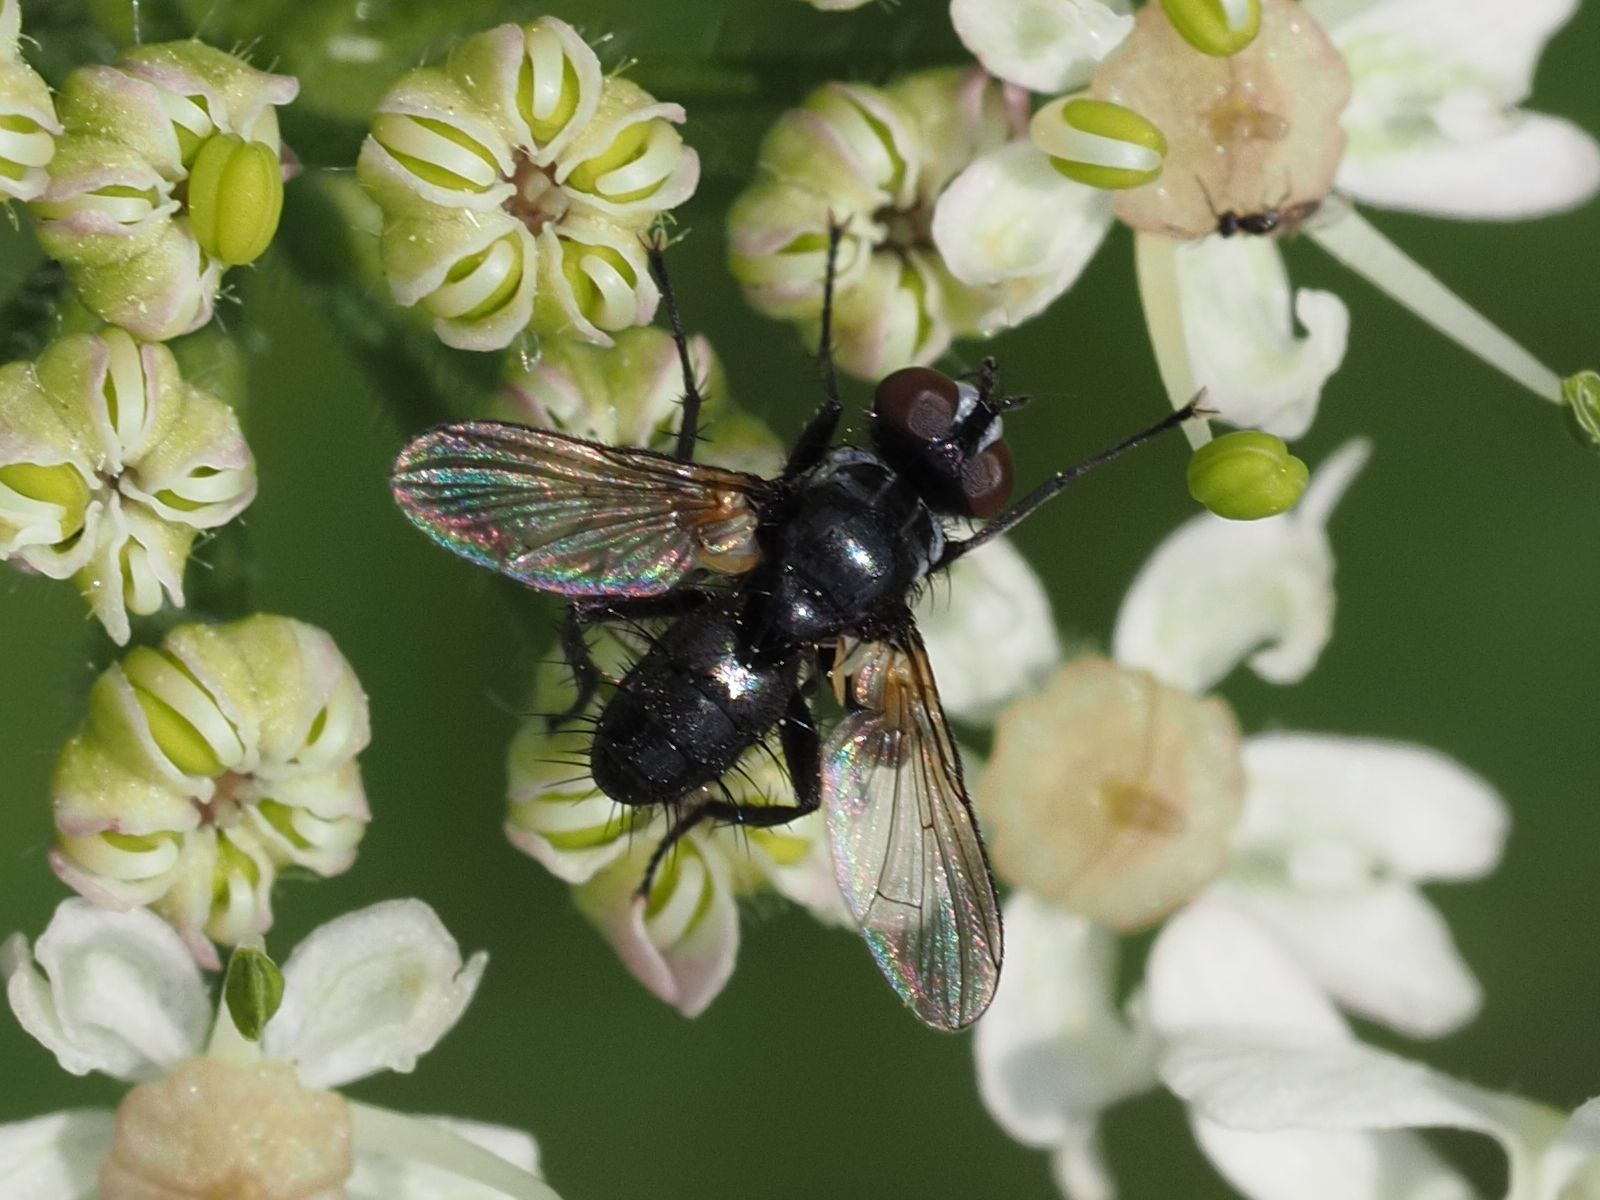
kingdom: Animalia
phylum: Arthropoda
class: Insecta
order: Diptera
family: Tachinidae
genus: Phania
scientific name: Phania funesta
